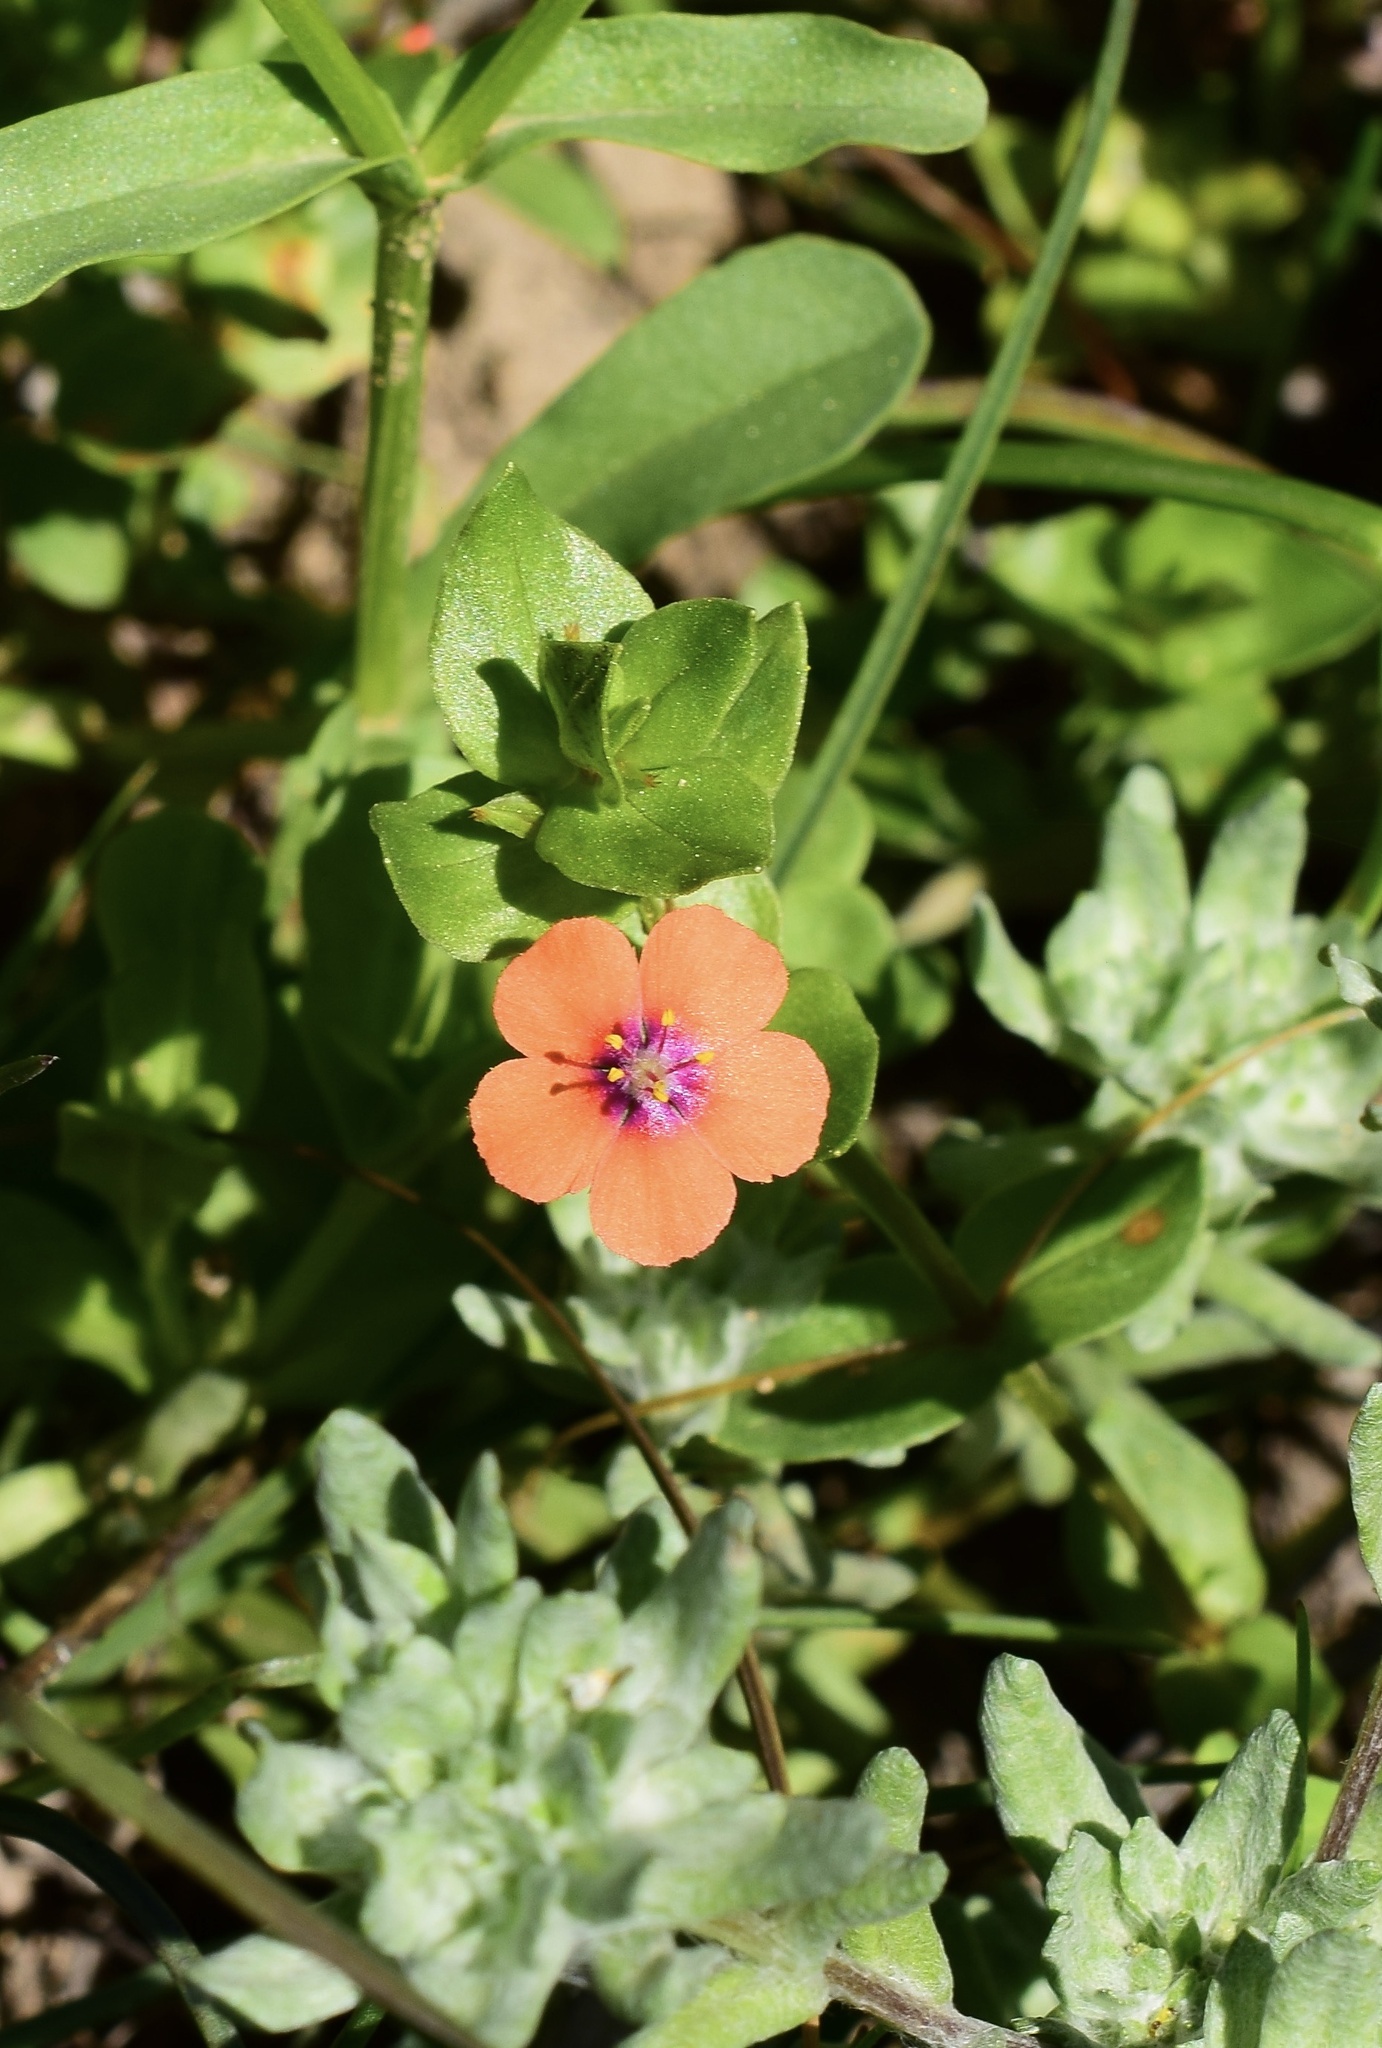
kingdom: Plantae
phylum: Tracheophyta
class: Magnoliopsida
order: Ericales
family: Primulaceae
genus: Lysimachia
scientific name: Lysimachia arvensis
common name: Scarlet pimpernel
